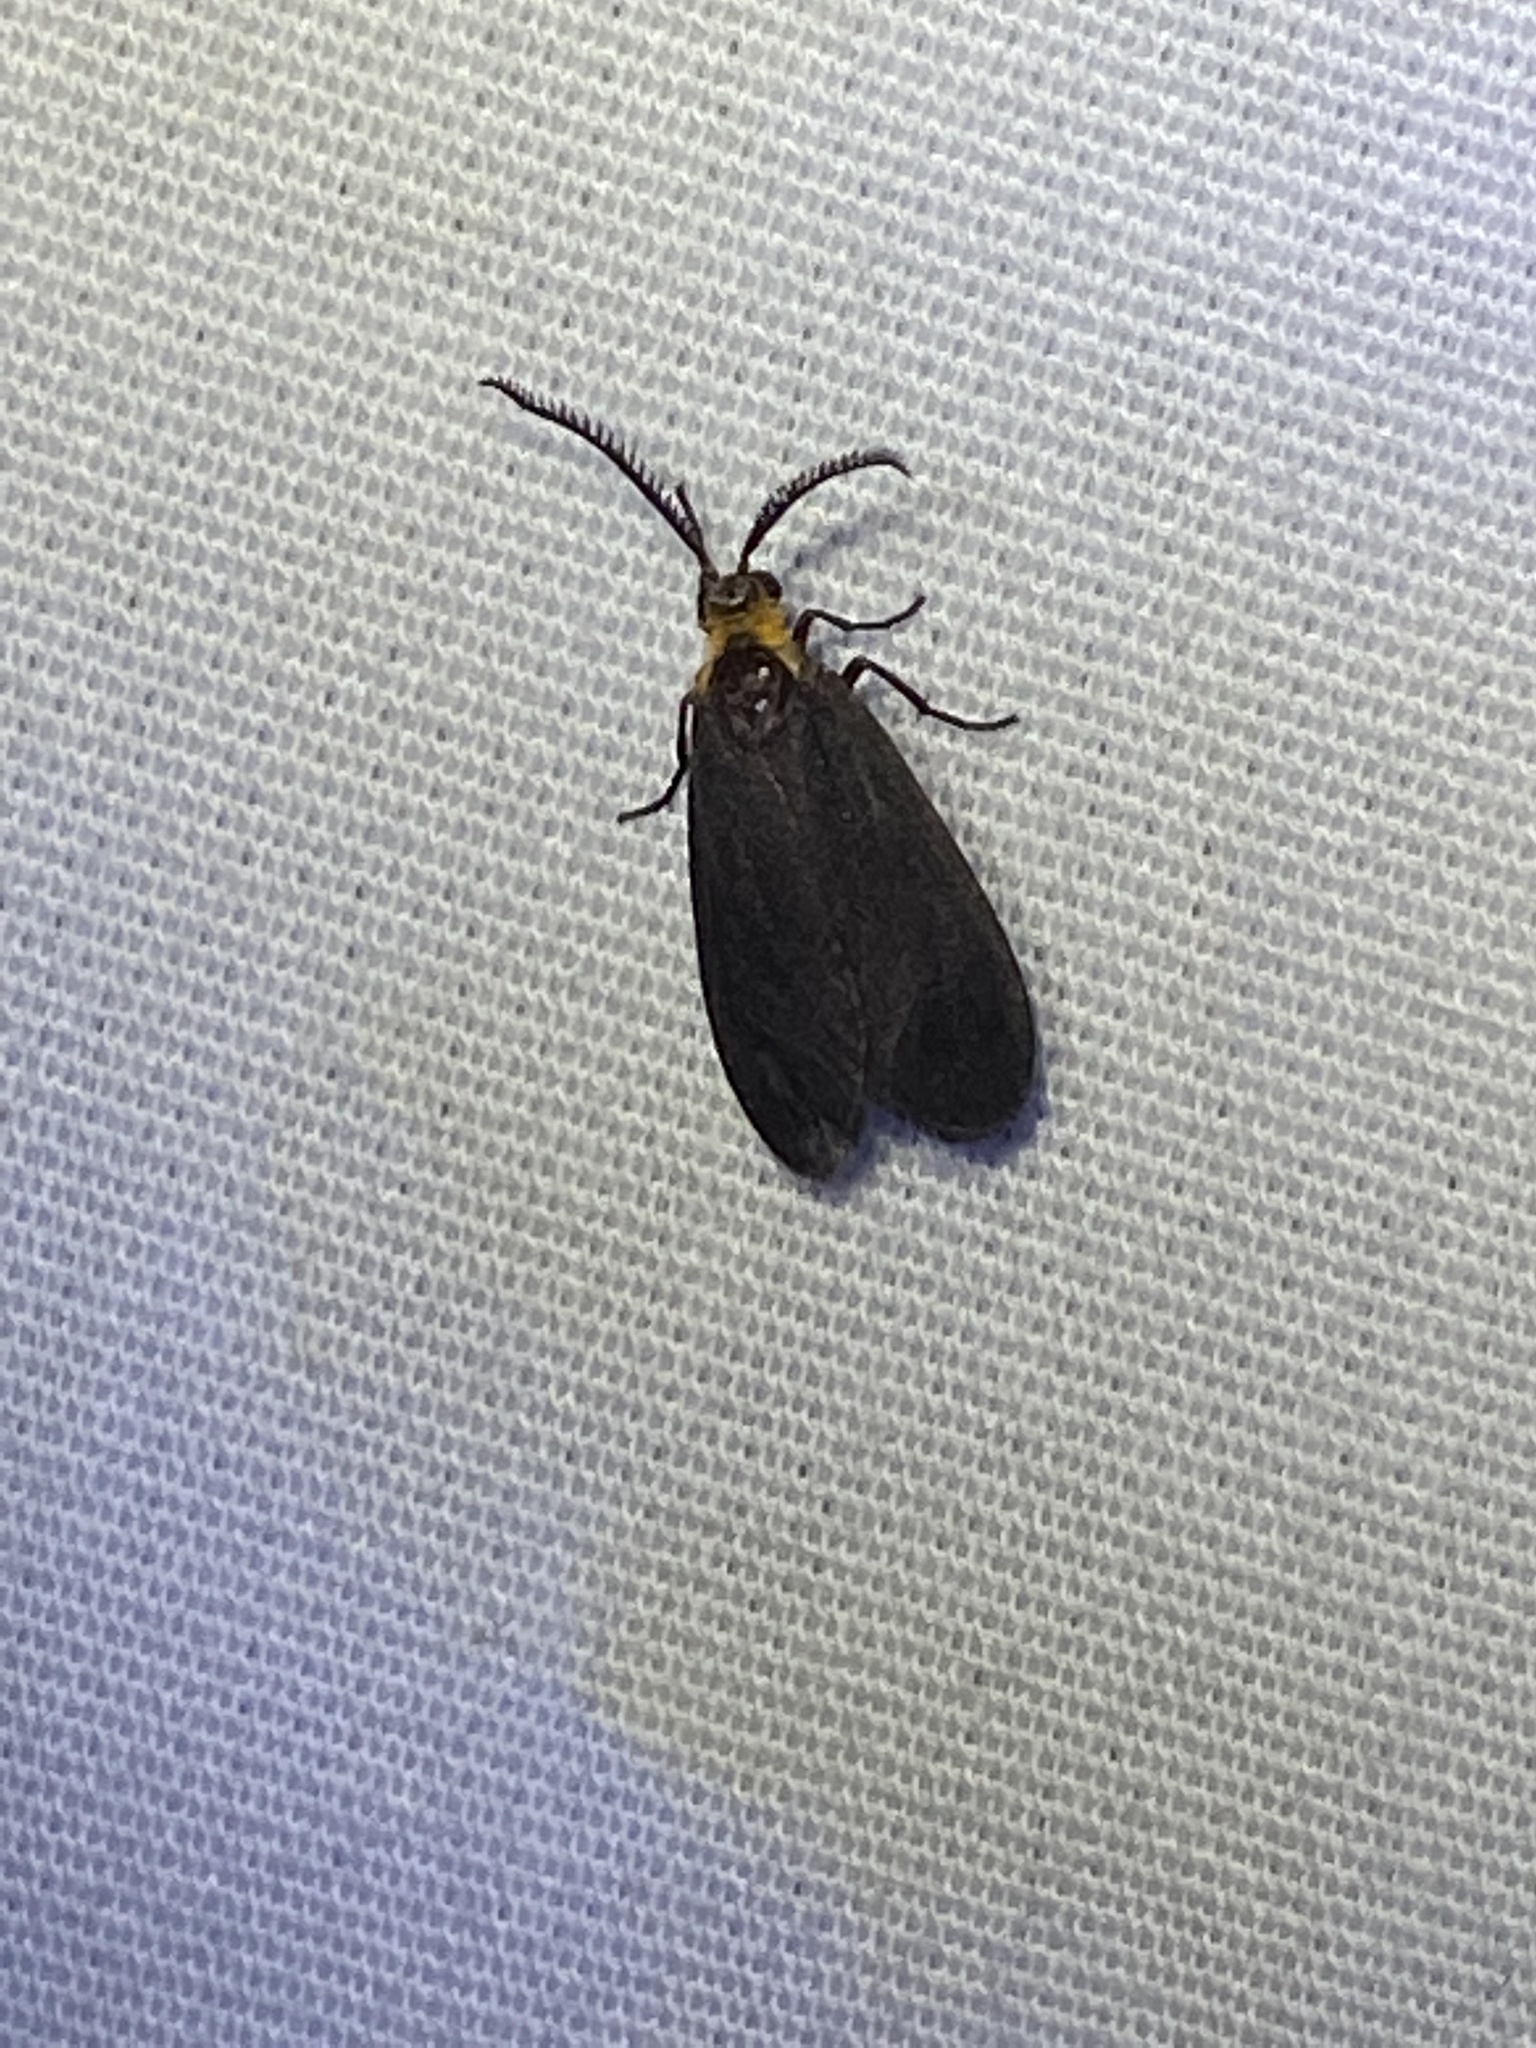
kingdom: Animalia
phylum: Arthropoda
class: Insecta
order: Lepidoptera
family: Zygaenidae
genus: Acoloithus
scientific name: Acoloithus falsarius
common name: Clemens' false skeletonizer
